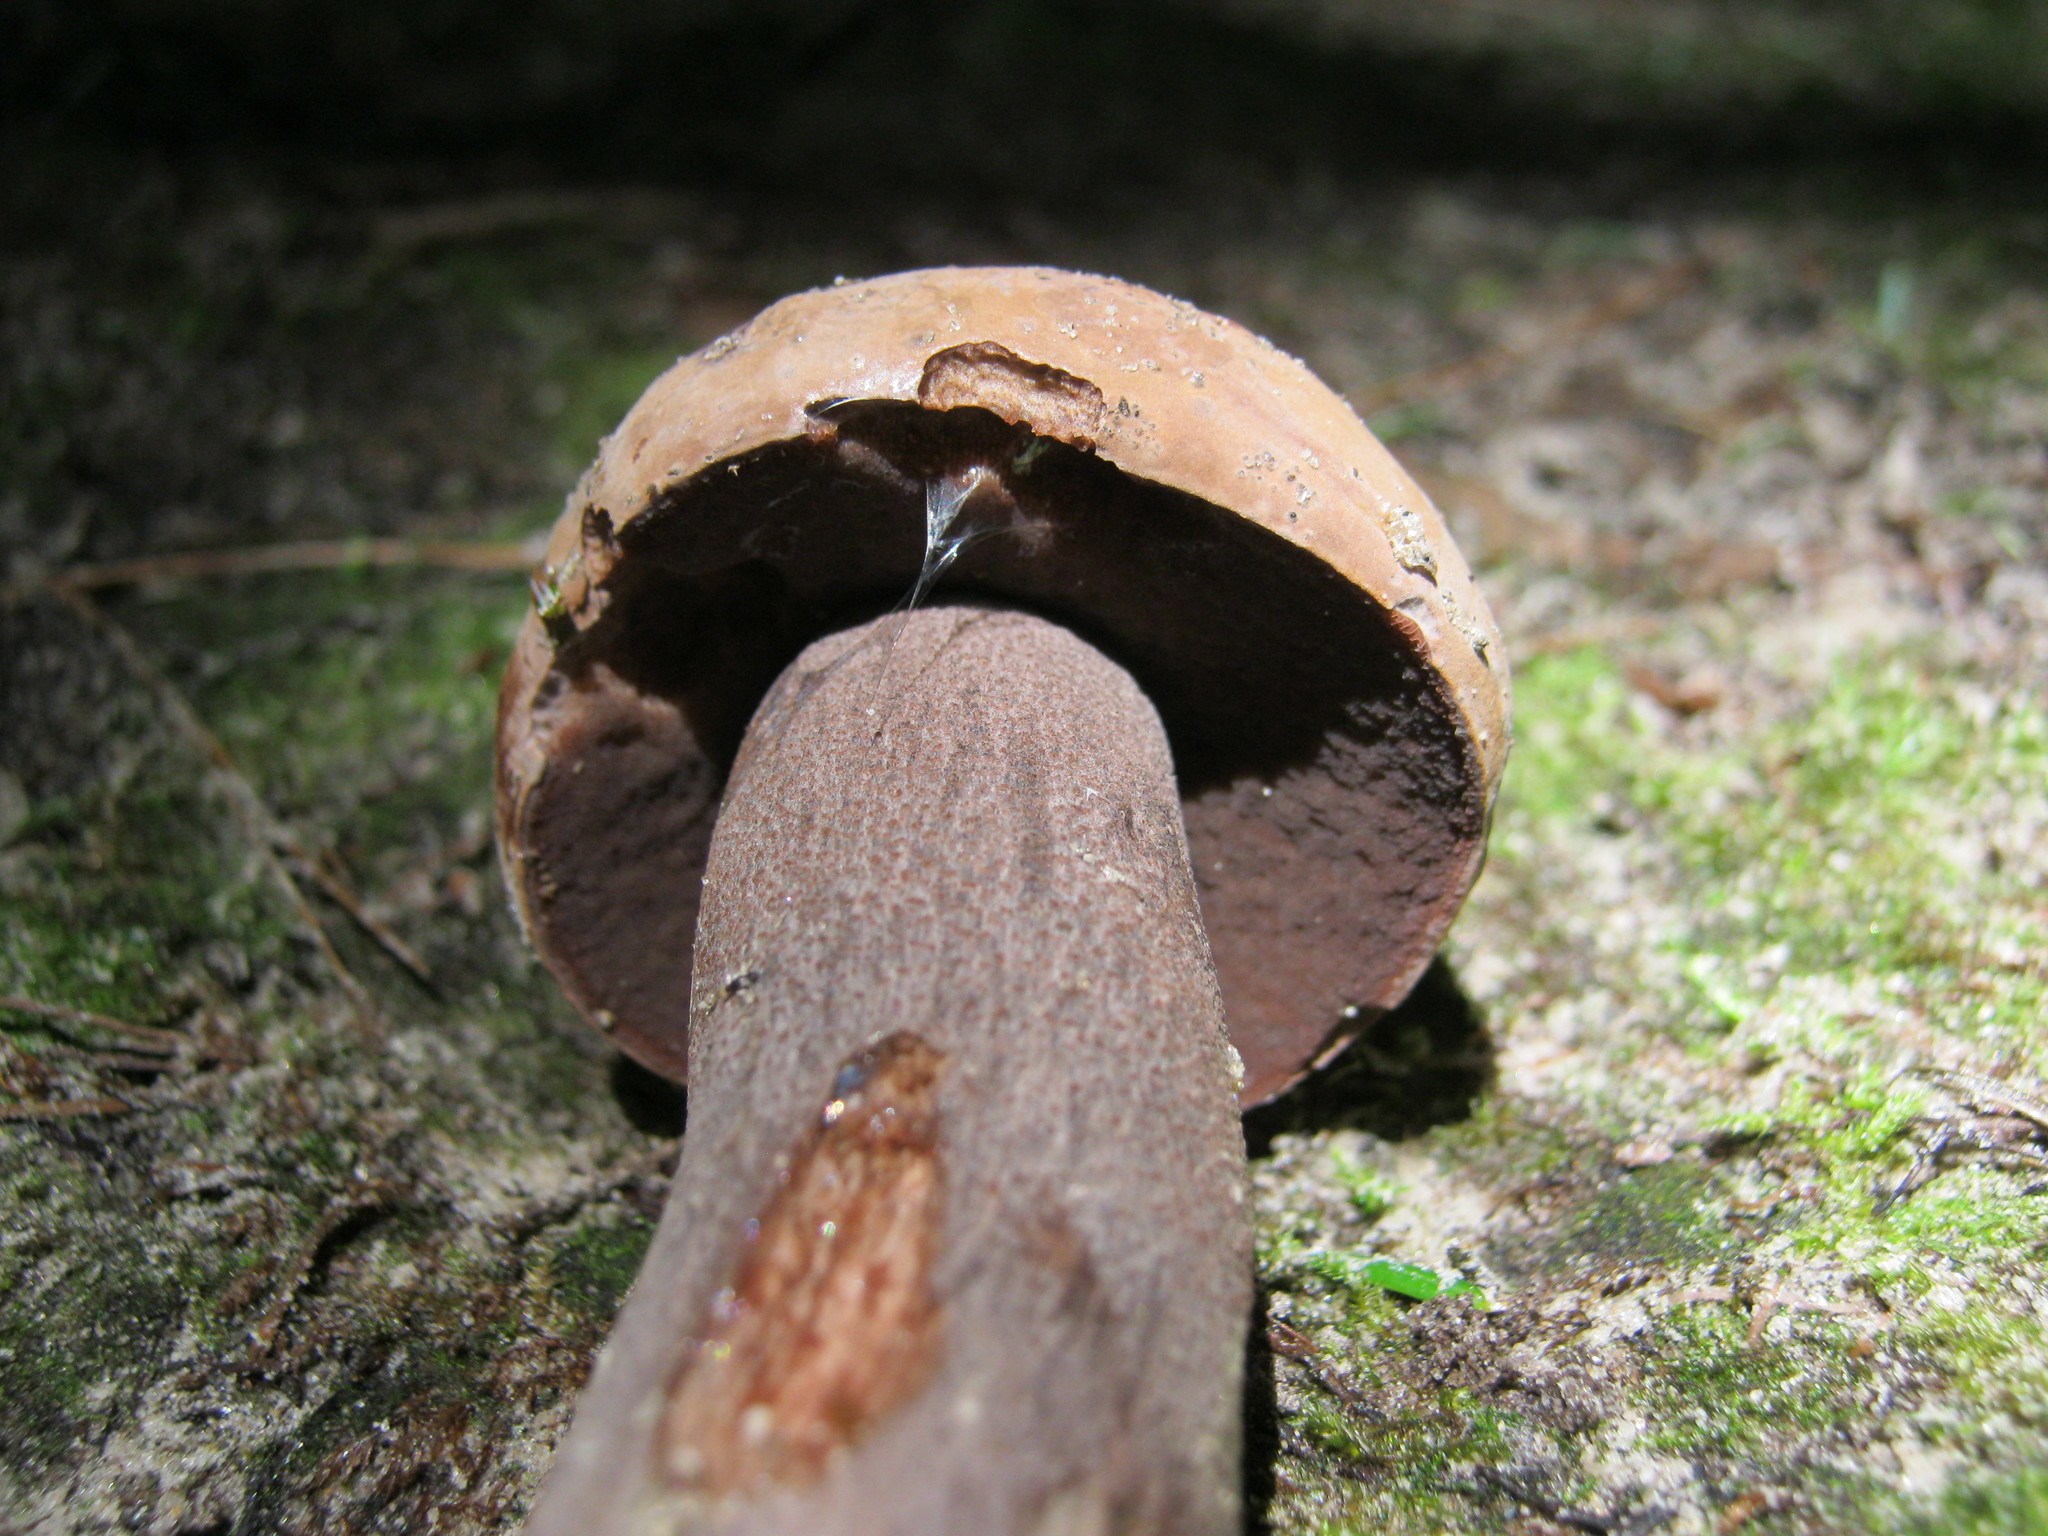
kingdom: Fungi
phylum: Basidiomycota
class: Agaricomycetes
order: Boletales
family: Boletaceae
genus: Sutorius
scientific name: Sutorius eximius
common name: Lilac-brown bolete
